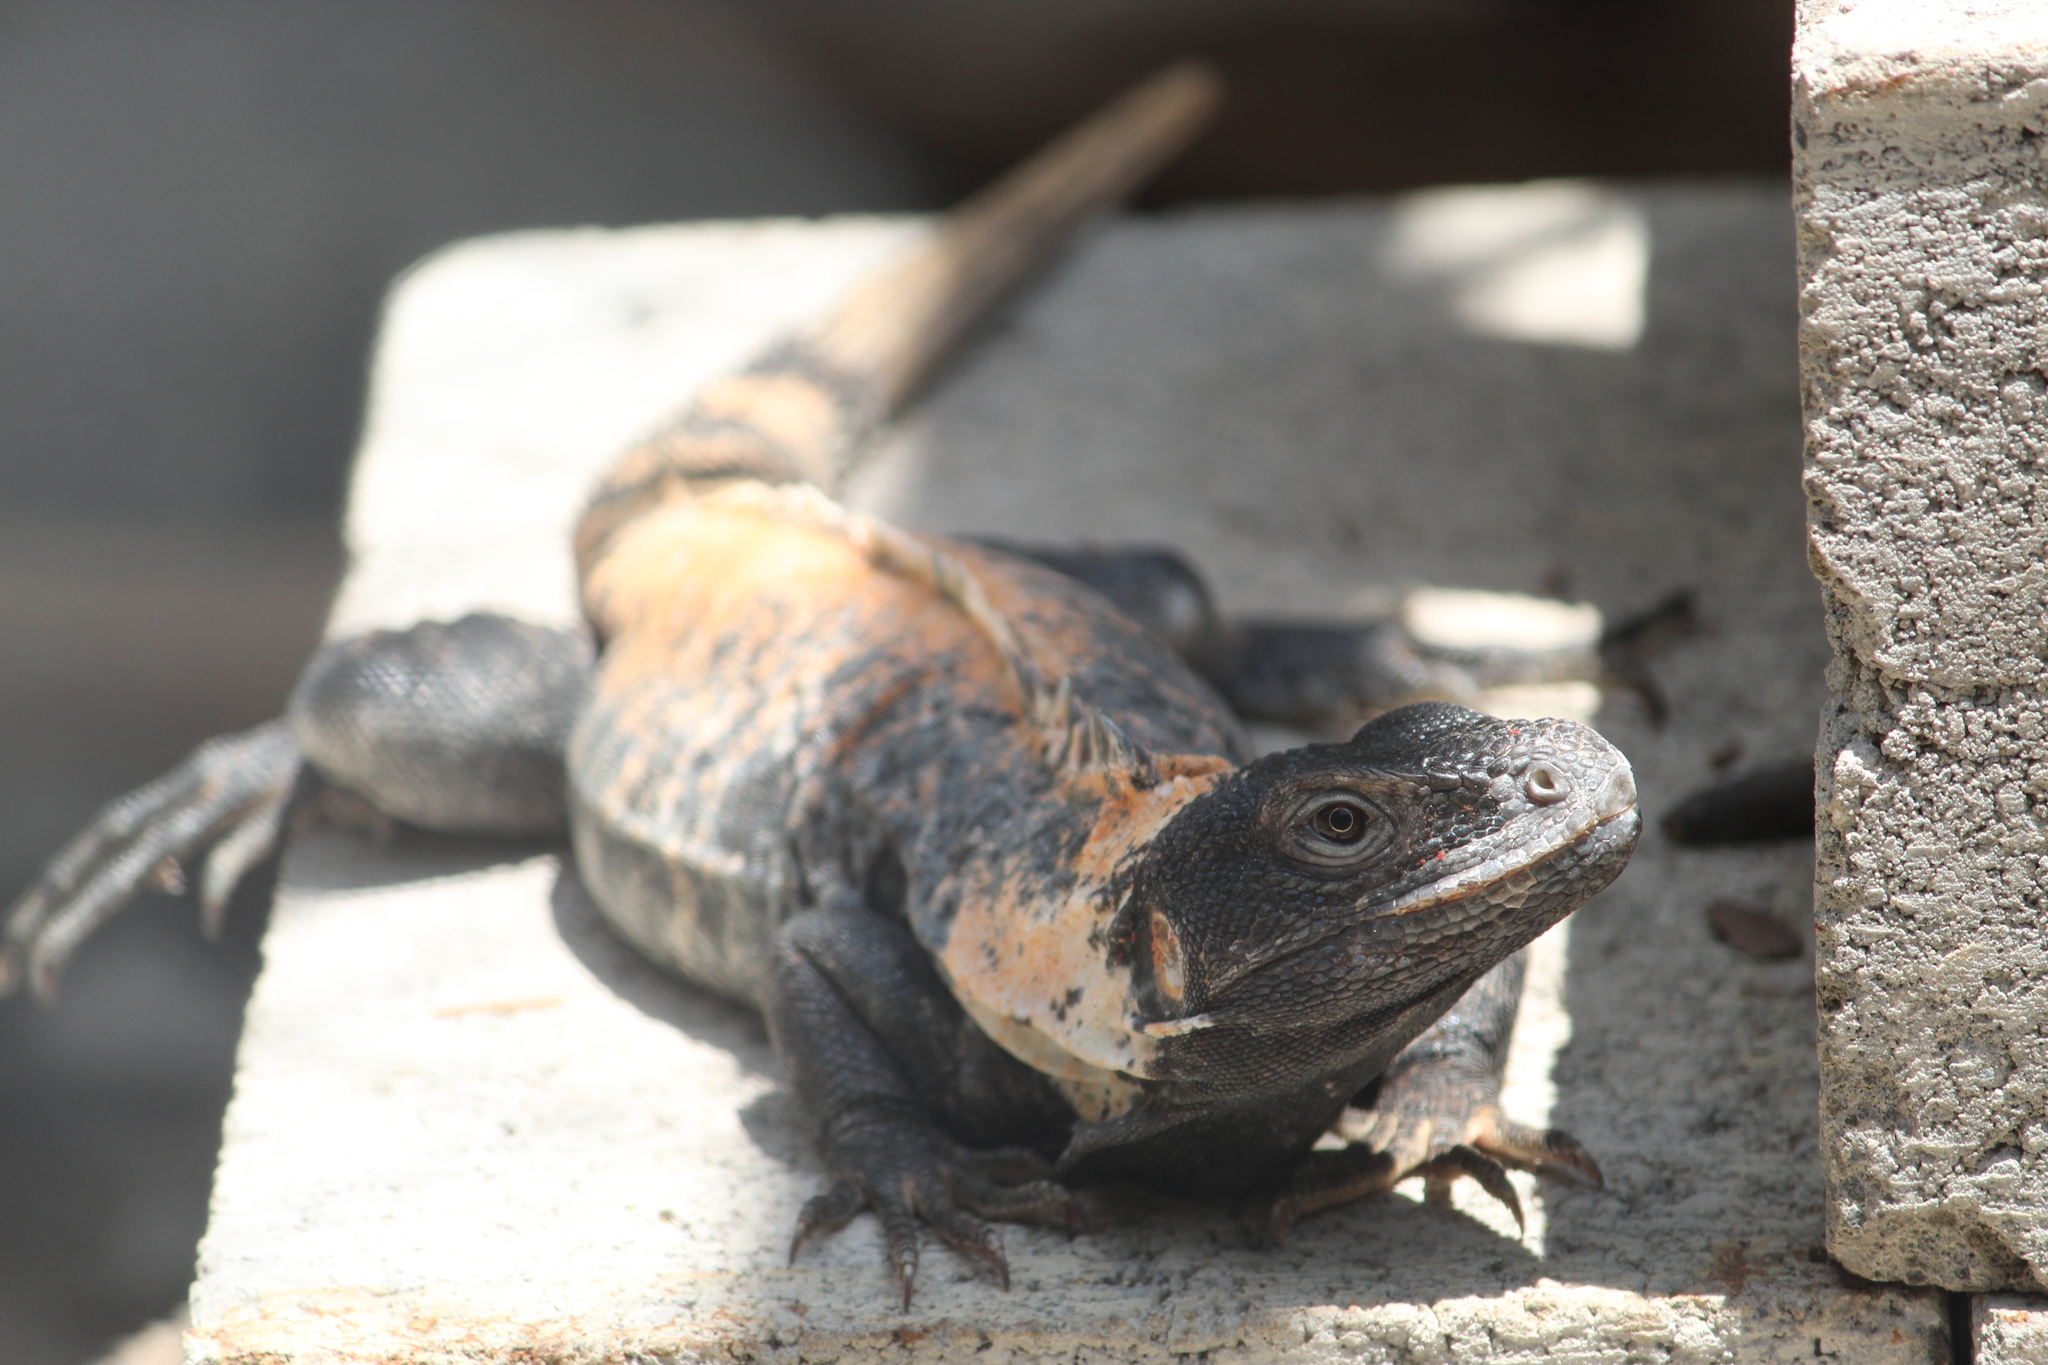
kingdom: Animalia
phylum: Chordata
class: Squamata
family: Iguanidae
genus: Ctenosaura
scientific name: Ctenosaura pectinata
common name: Guerreran spiny-tailed iguana
